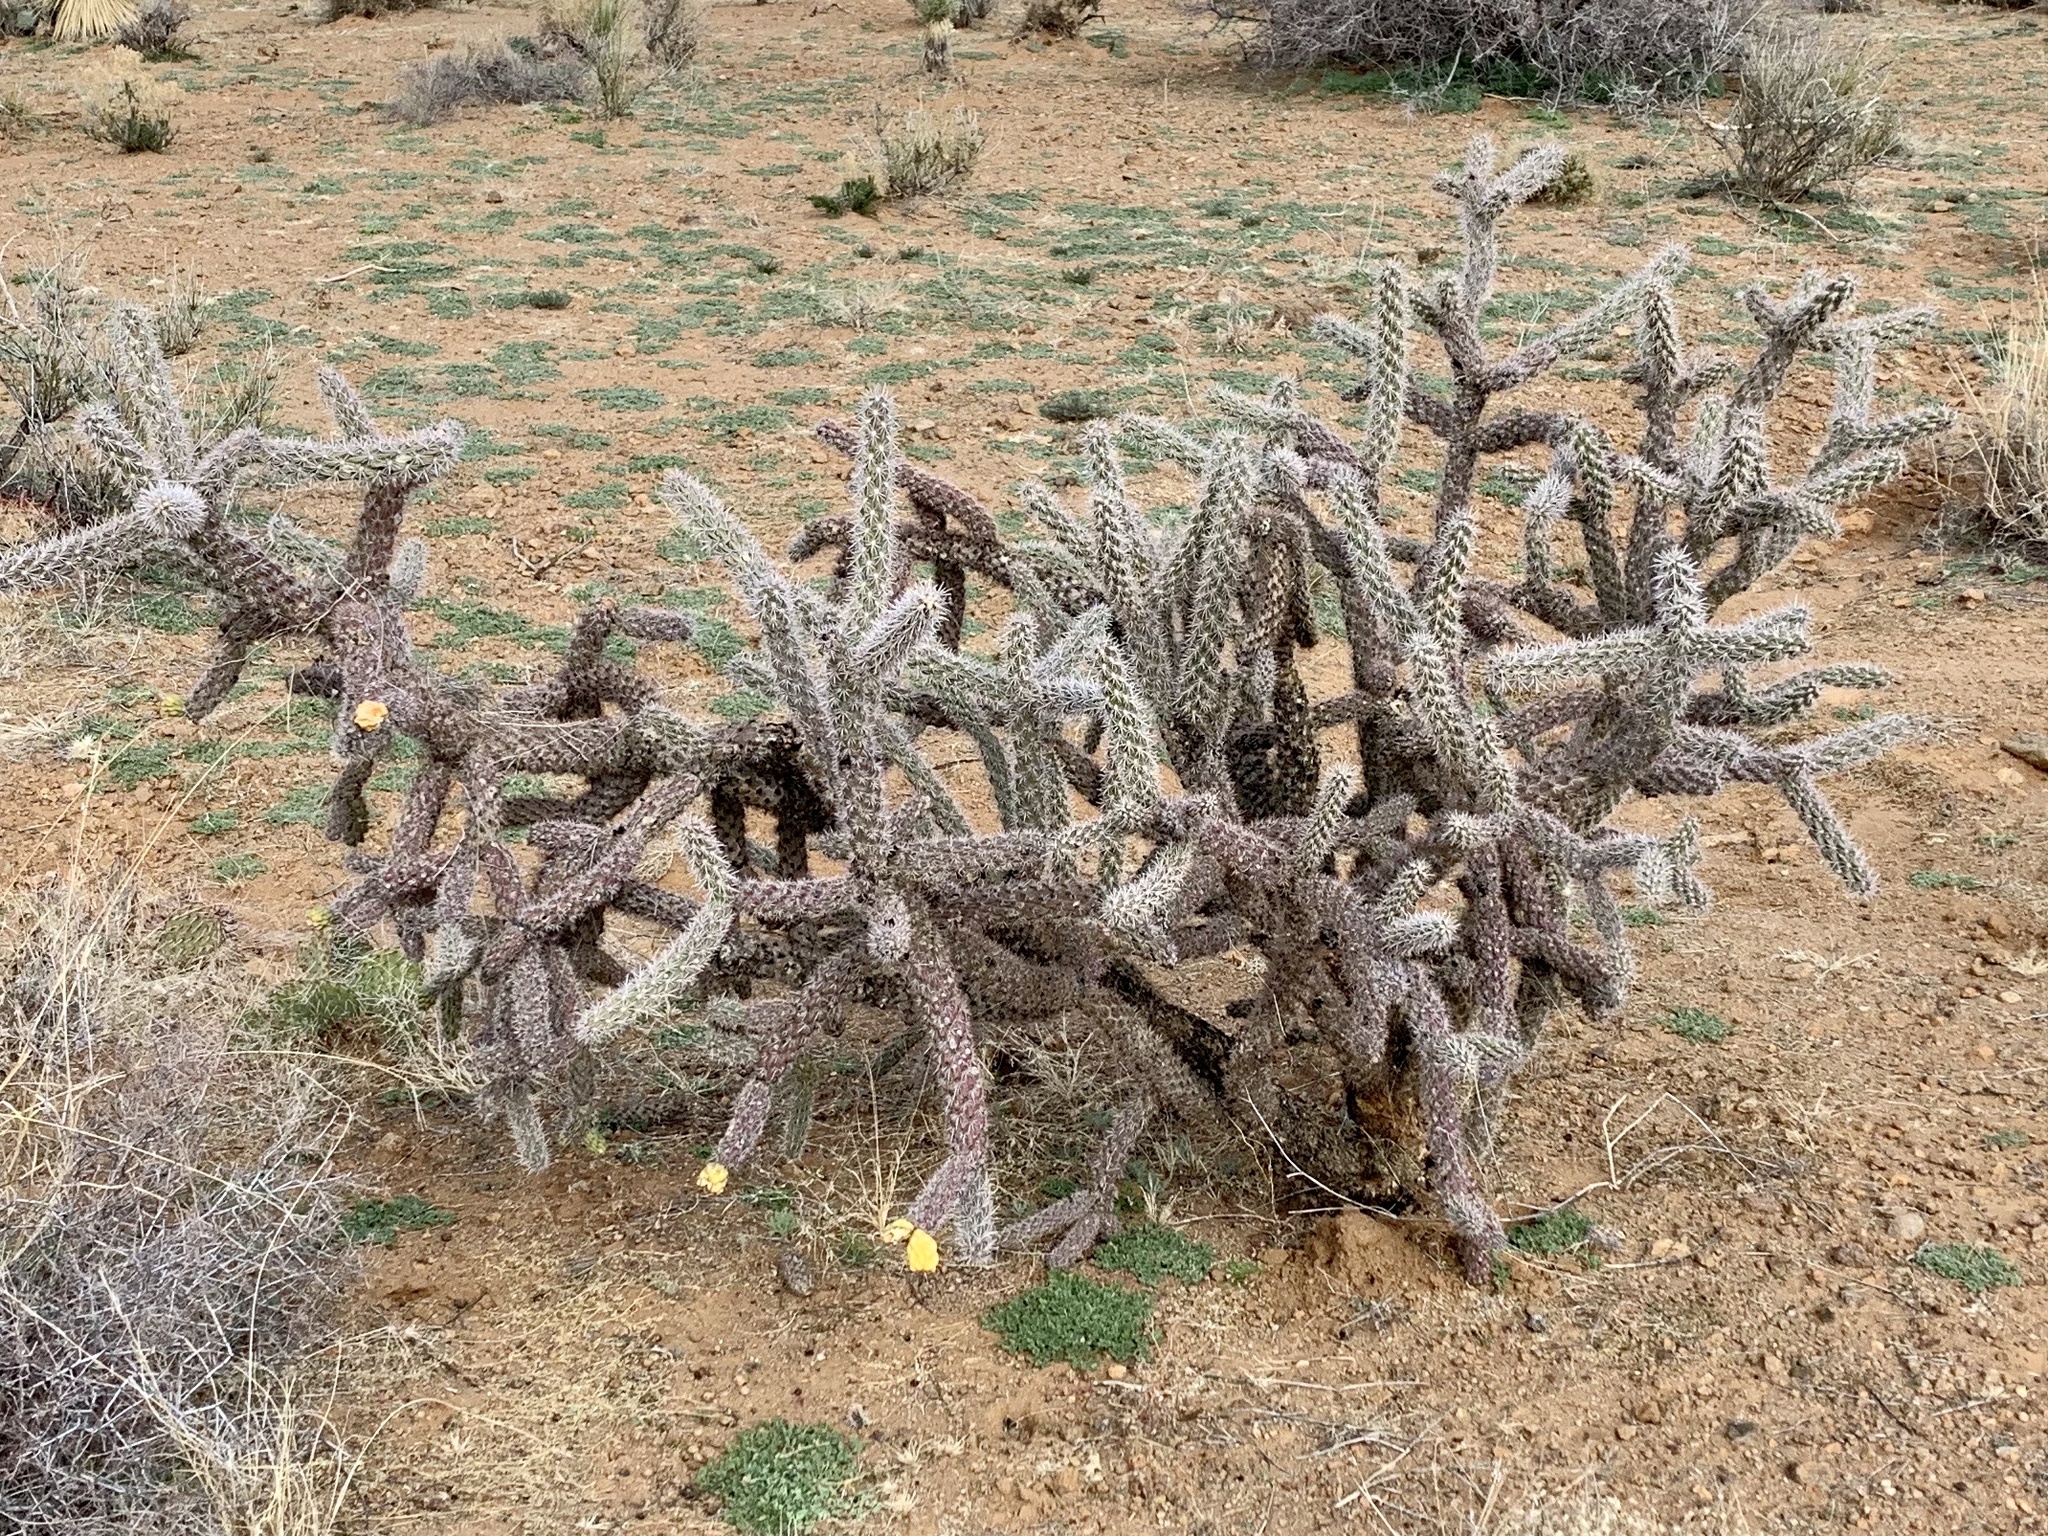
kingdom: Plantae
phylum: Tracheophyta
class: Magnoliopsida
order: Caryophyllales
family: Cactaceae
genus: Cylindropuntia
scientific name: Cylindropuntia imbricata
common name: Candelabrum cactus
